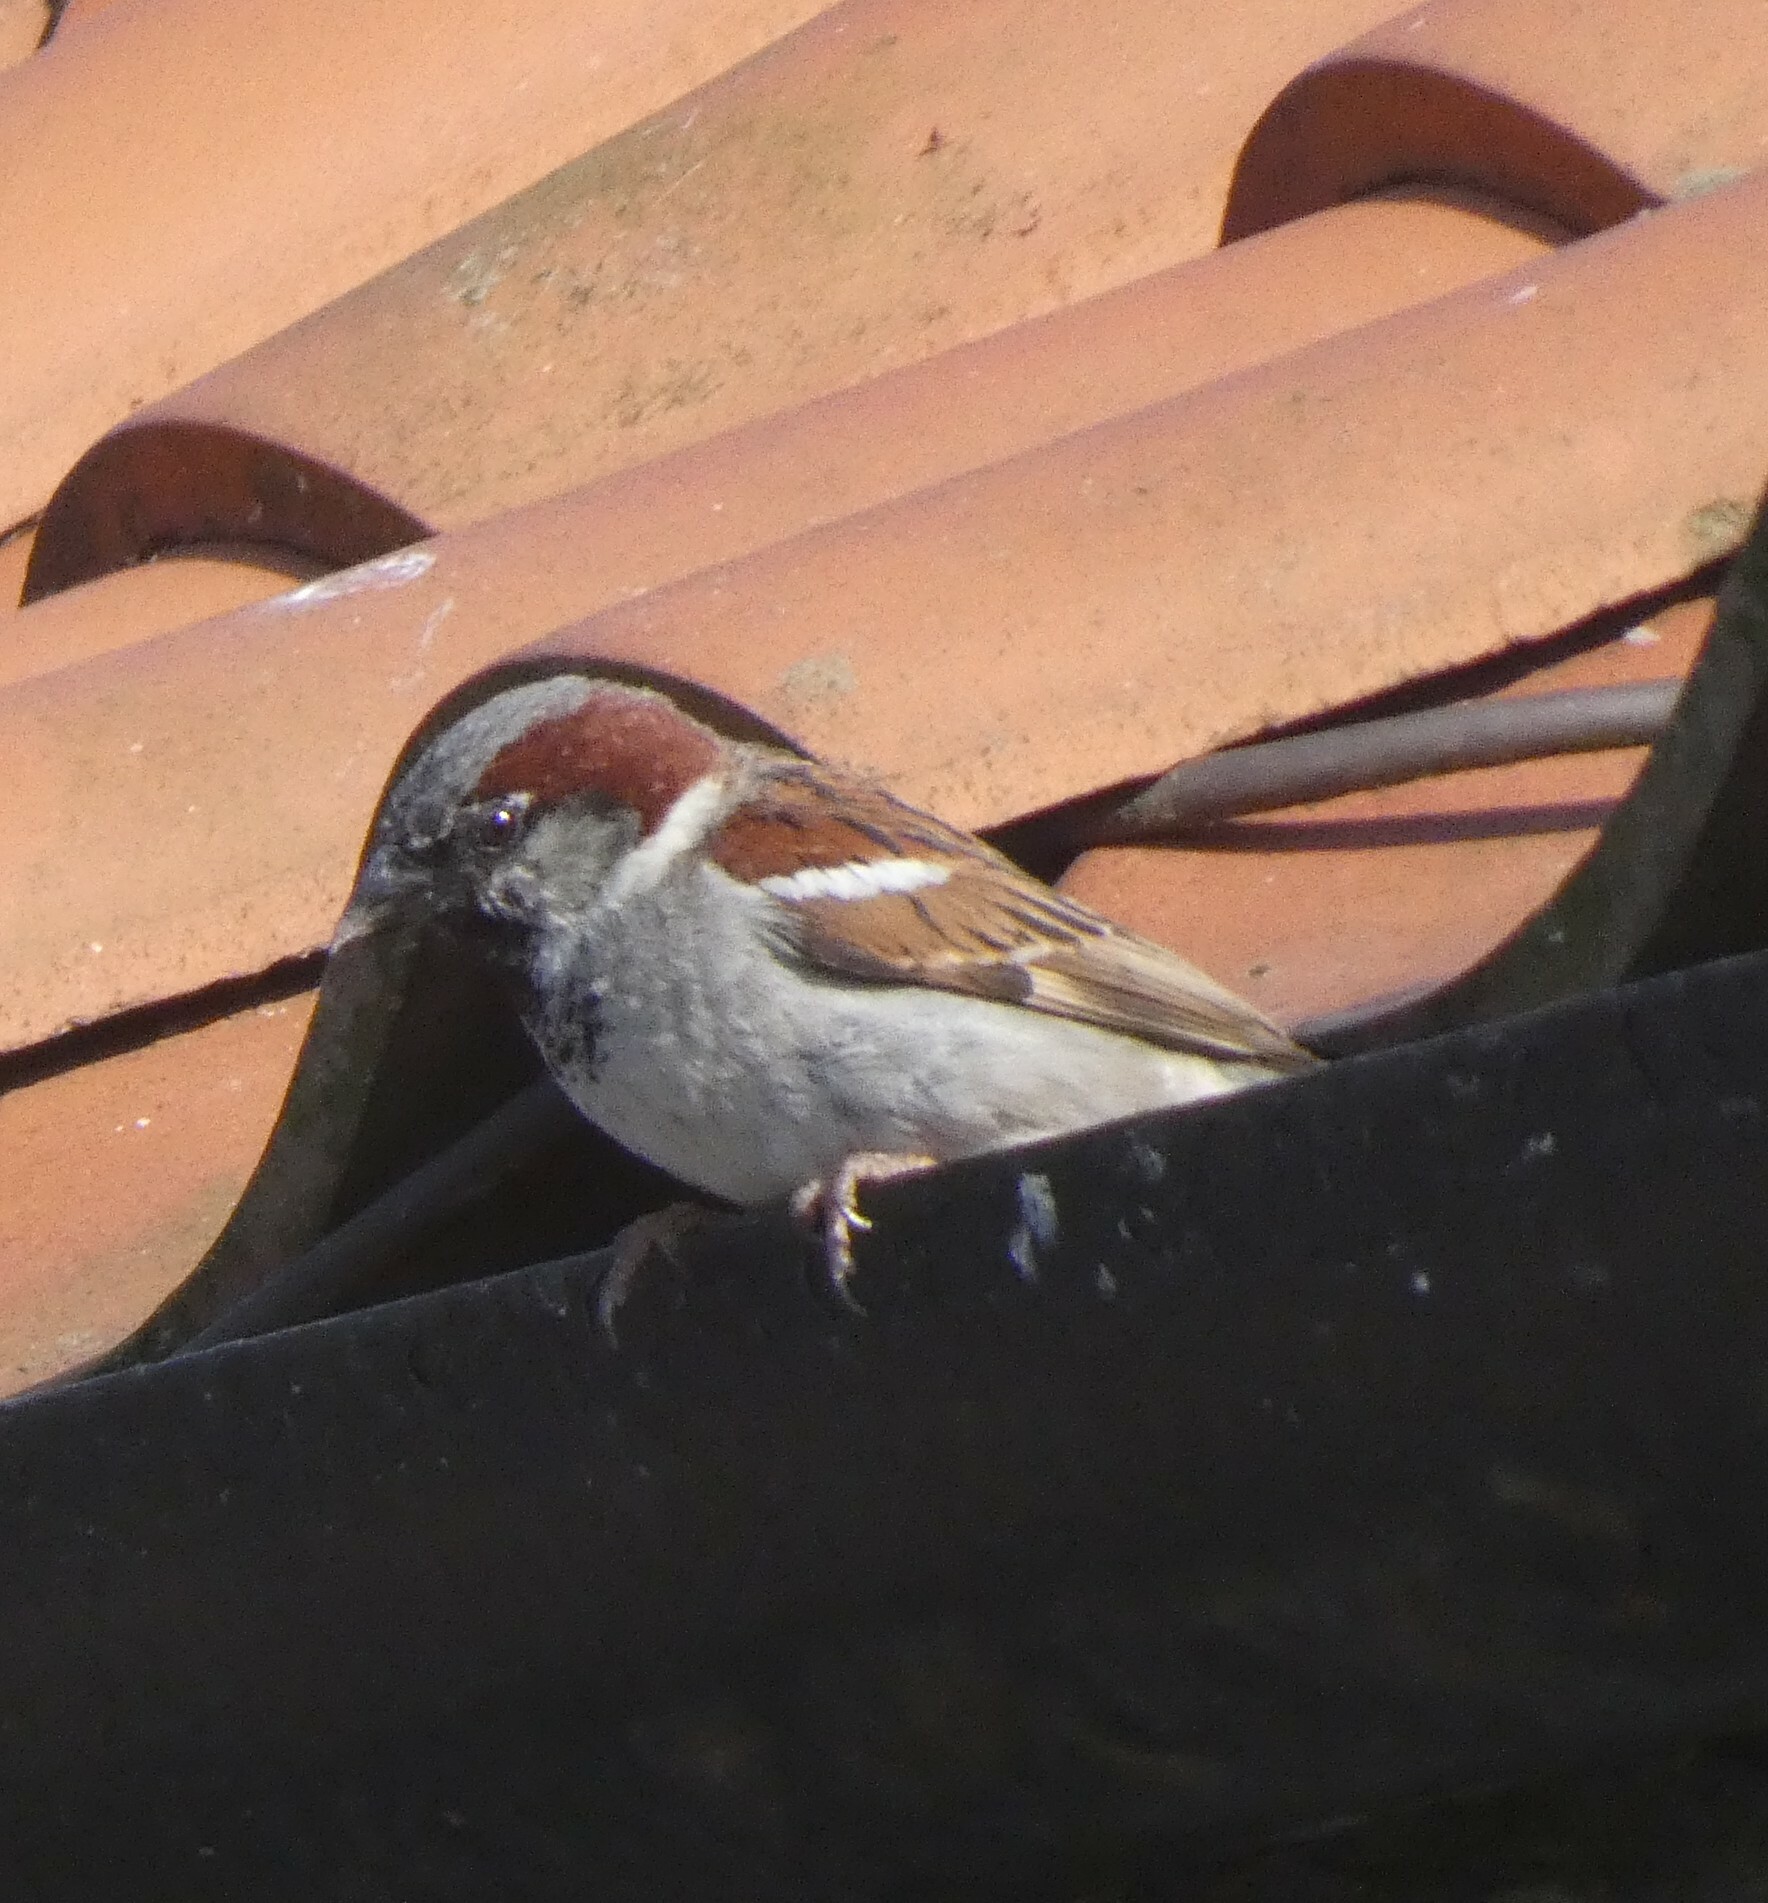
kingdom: Animalia
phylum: Chordata
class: Aves
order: Passeriformes
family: Passeridae
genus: Passer
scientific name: Passer domesticus
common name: House sparrow
